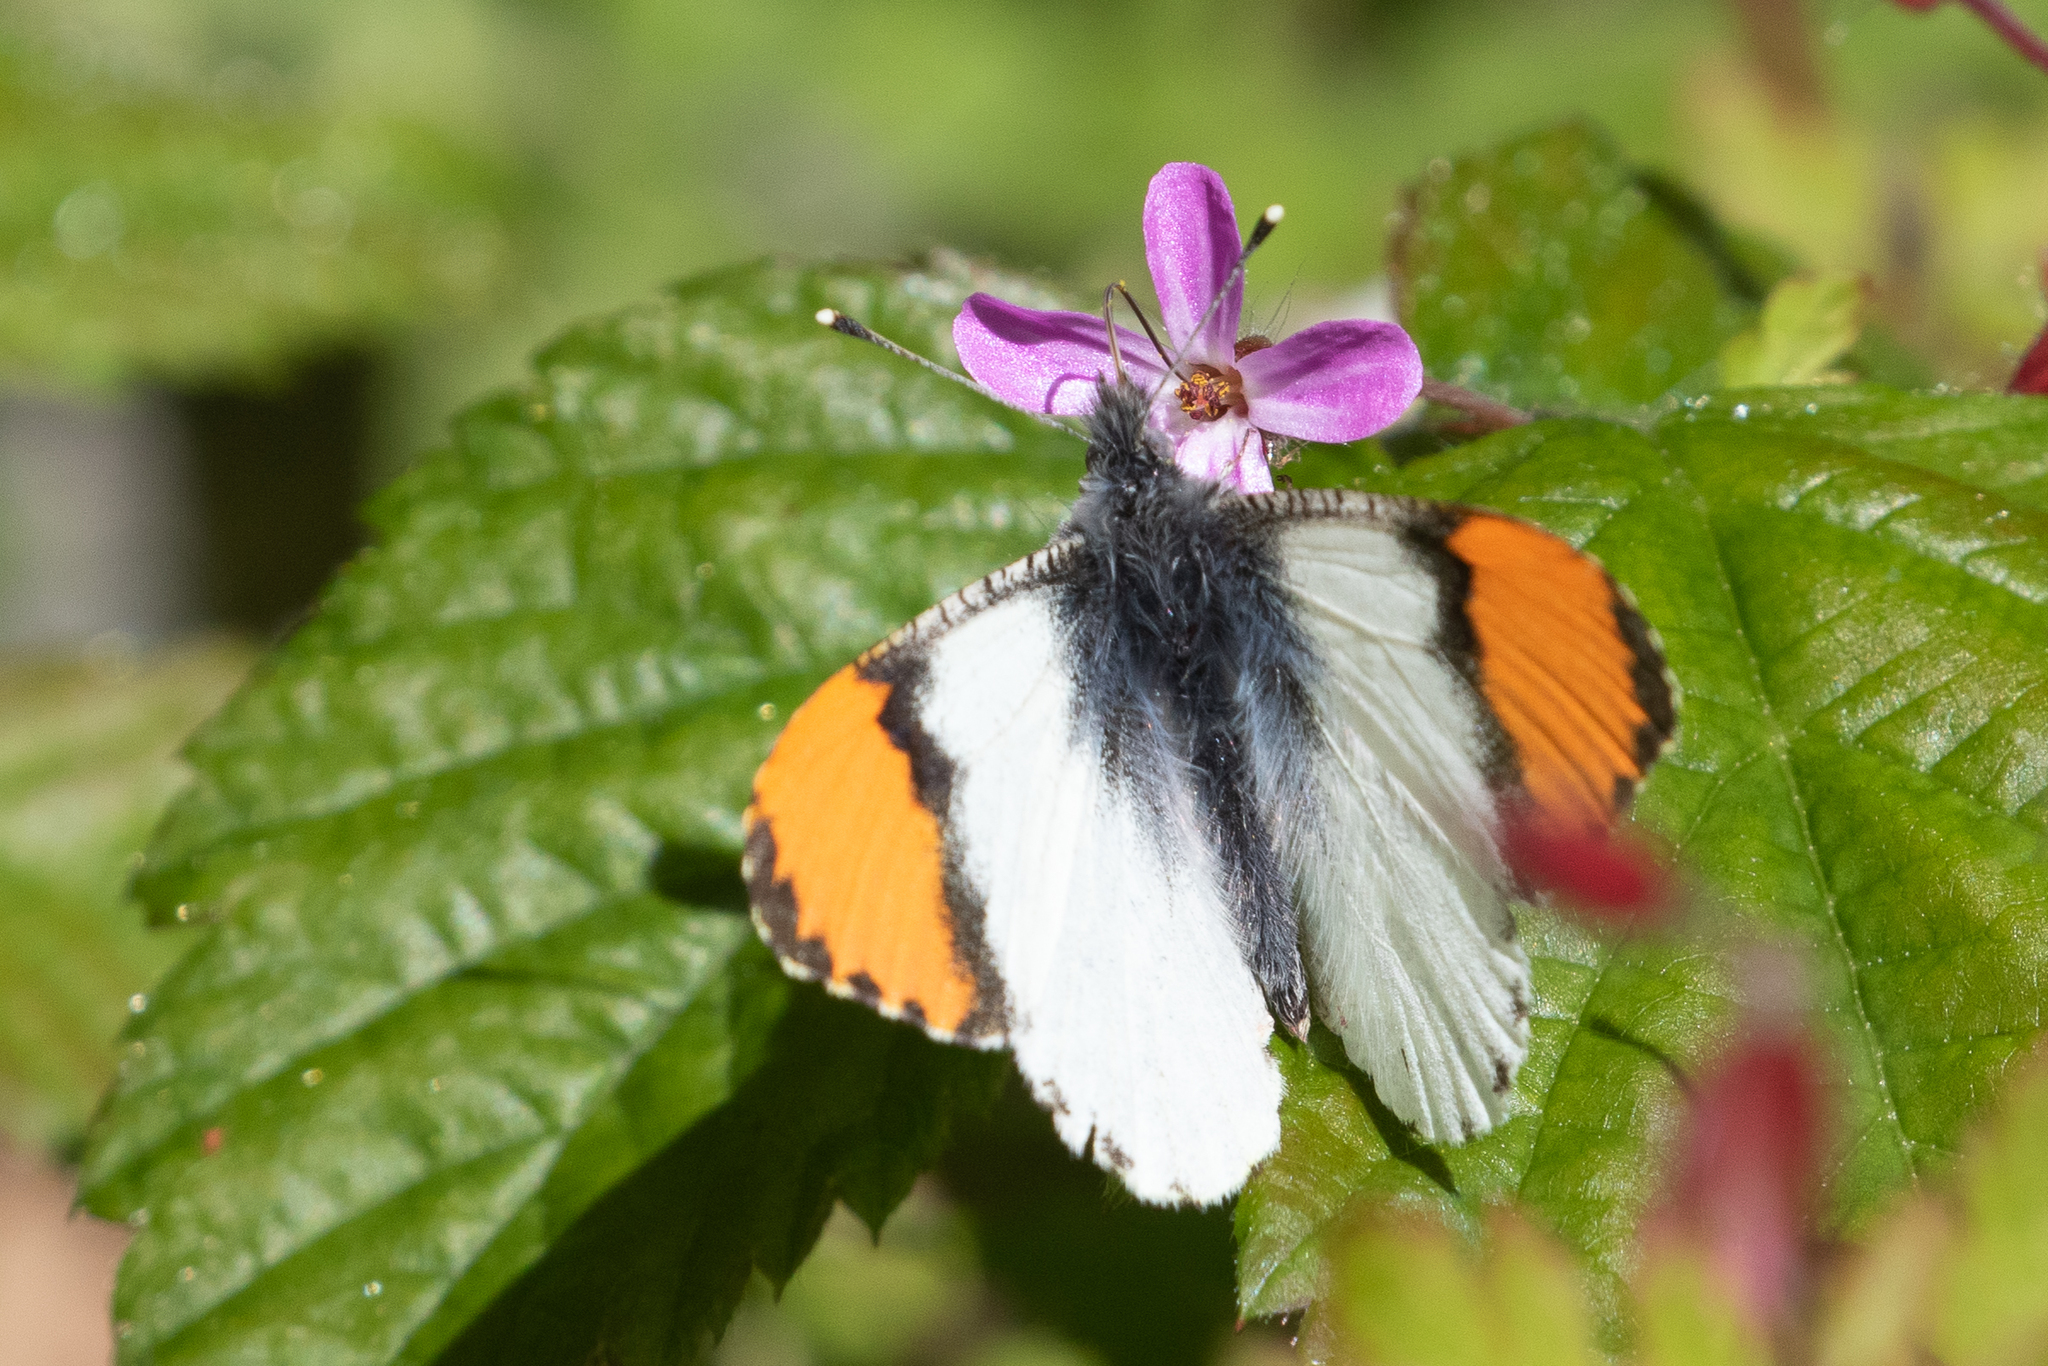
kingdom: Animalia
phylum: Arthropoda
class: Insecta
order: Lepidoptera
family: Pieridae
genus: Anthocharis
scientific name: Anthocharis julia
